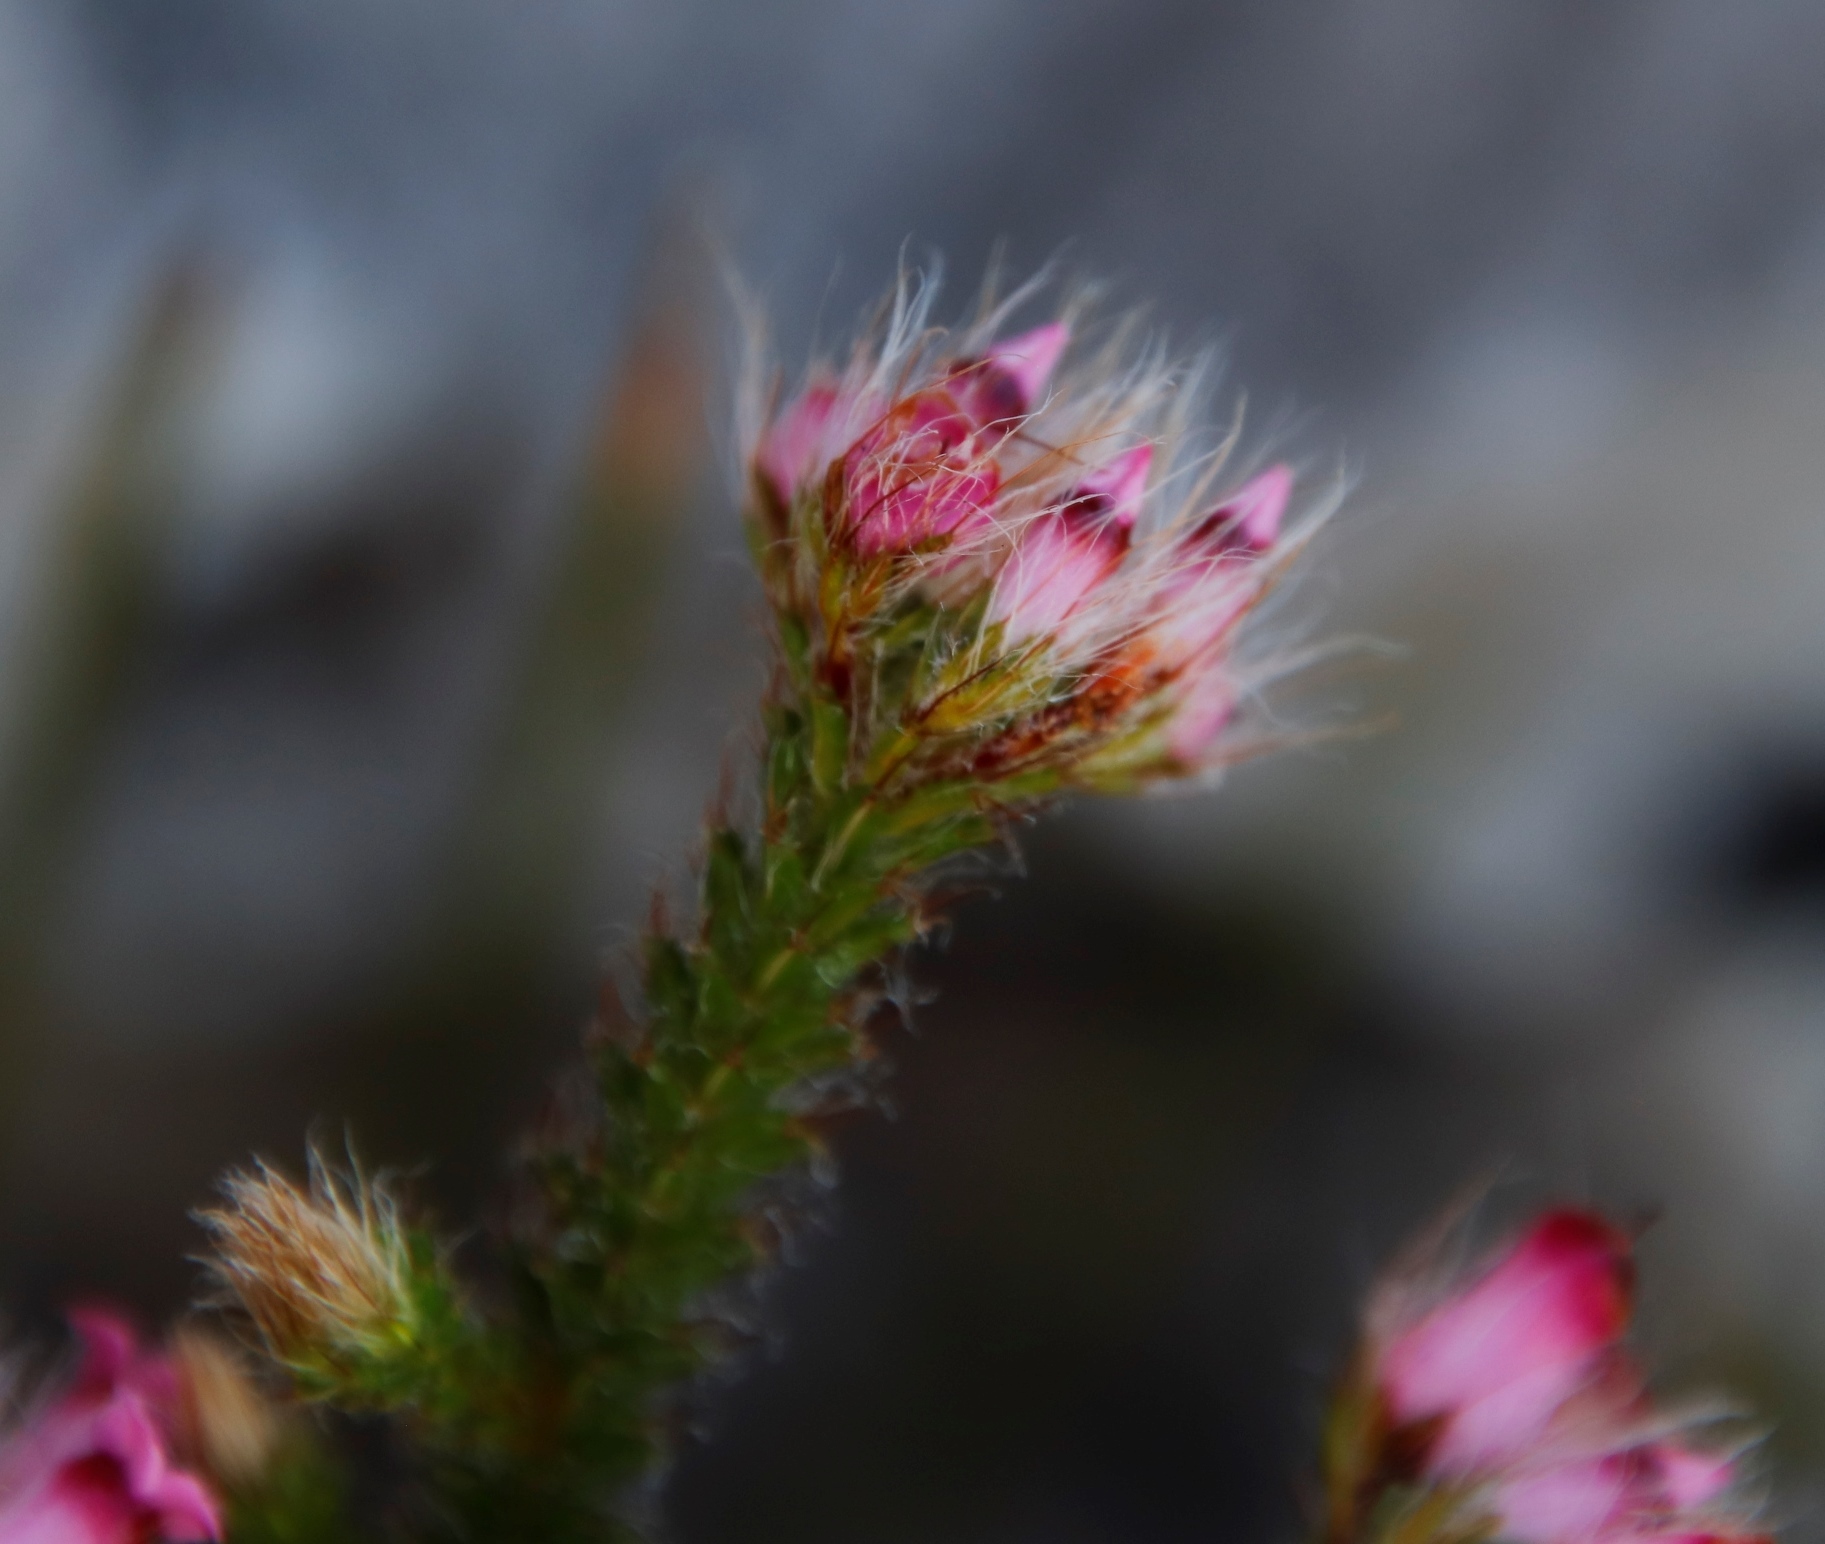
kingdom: Plantae
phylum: Tracheophyta
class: Magnoliopsida
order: Ericales
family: Ericaceae
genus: Erica
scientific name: Erica gysbertii
